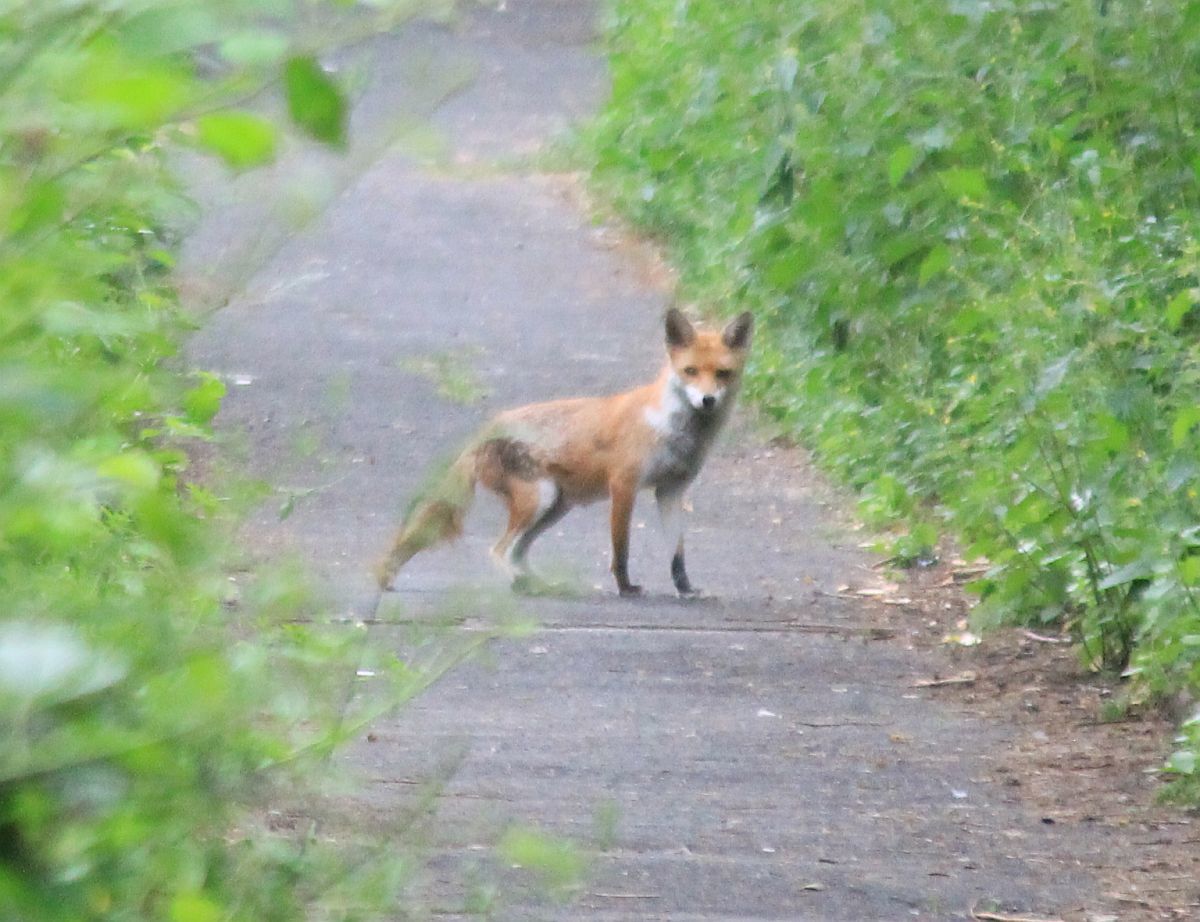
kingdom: Animalia
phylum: Chordata
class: Mammalia
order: Carnivora
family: Canidae
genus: Vulpes
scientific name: Vulpes vulpes
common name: Red fox
